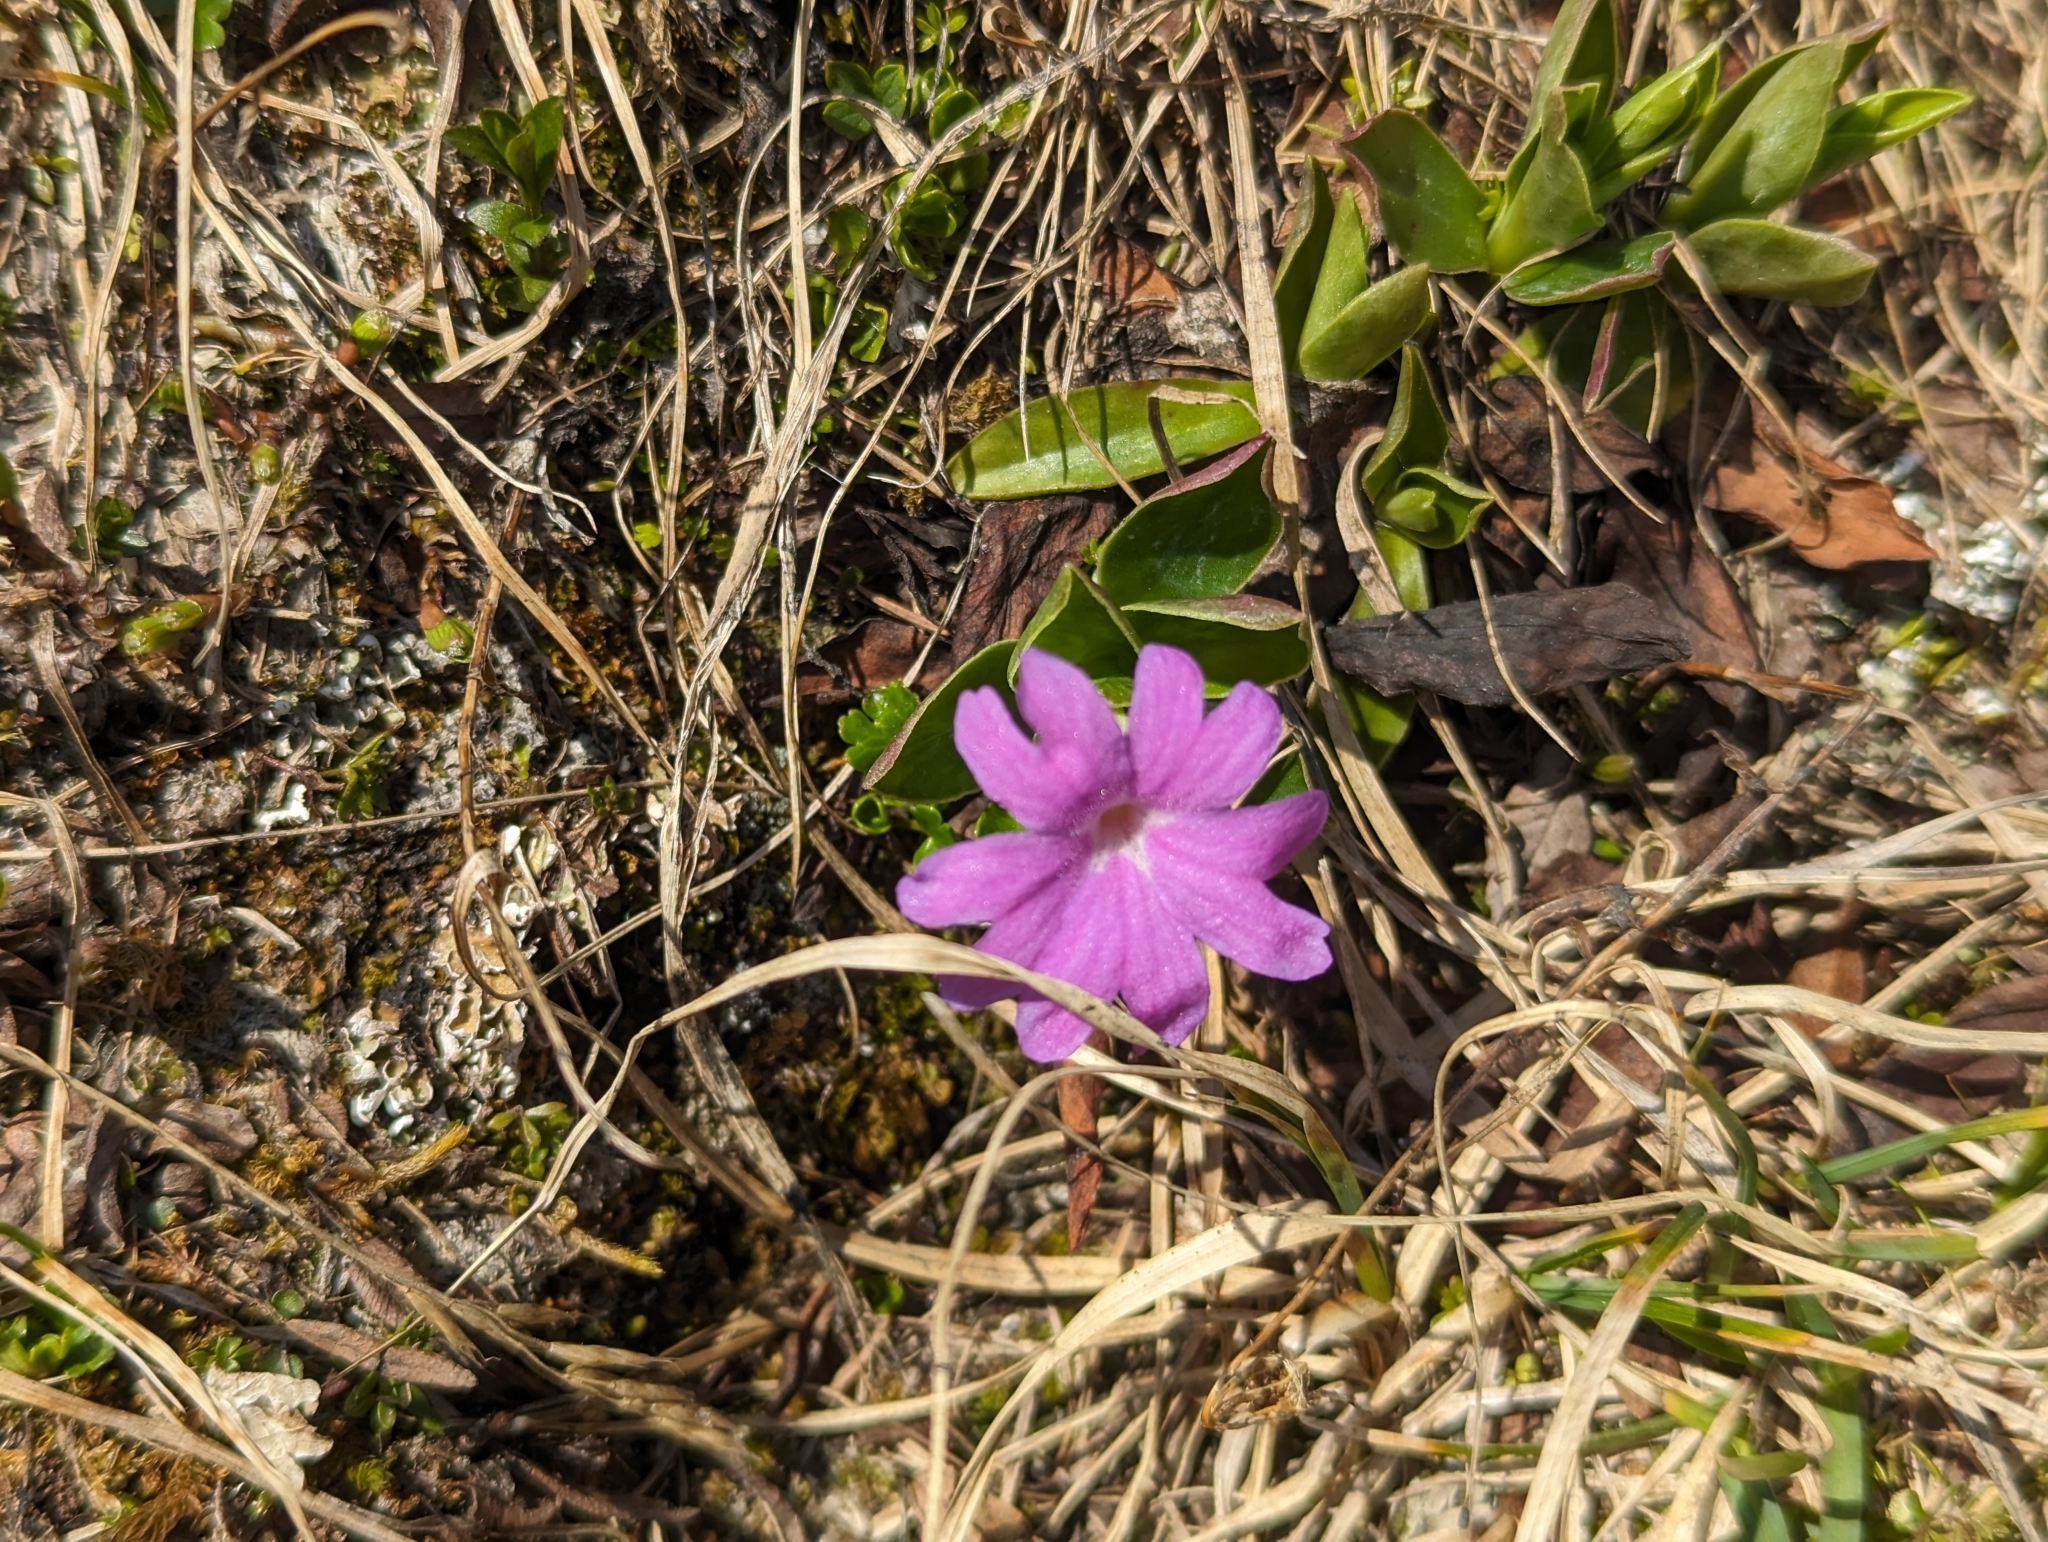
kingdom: Plantae
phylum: Tracheophyta
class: Magnoliopsida
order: Ericales
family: Primulaceae
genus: Primula
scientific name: Primula clusiana
